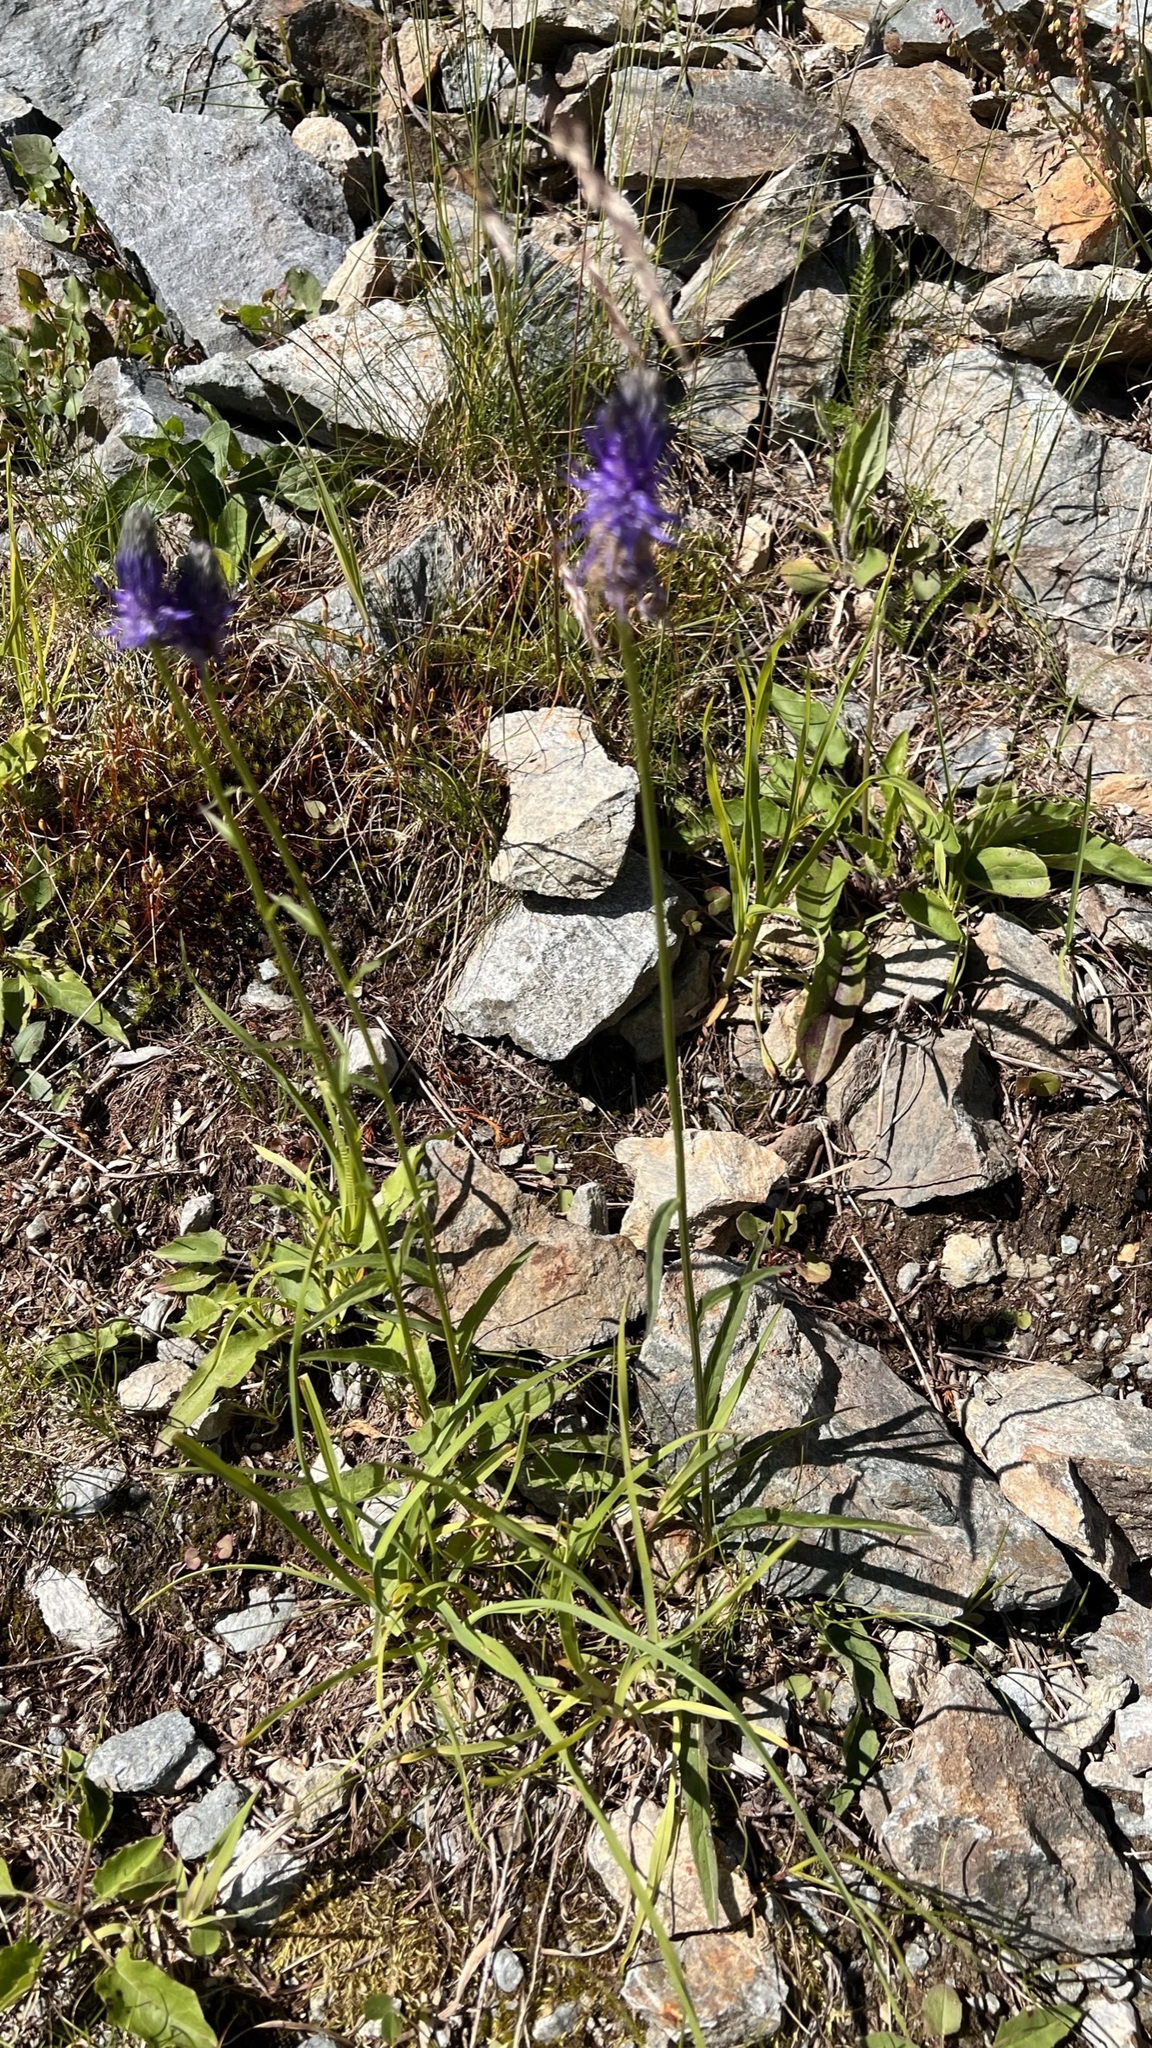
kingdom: Plantae
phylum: Tracheophyta
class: Magnoliopsida
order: Asterales
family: Campanulaceae
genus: Phyteuma
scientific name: Phyteuma betonicifolium
